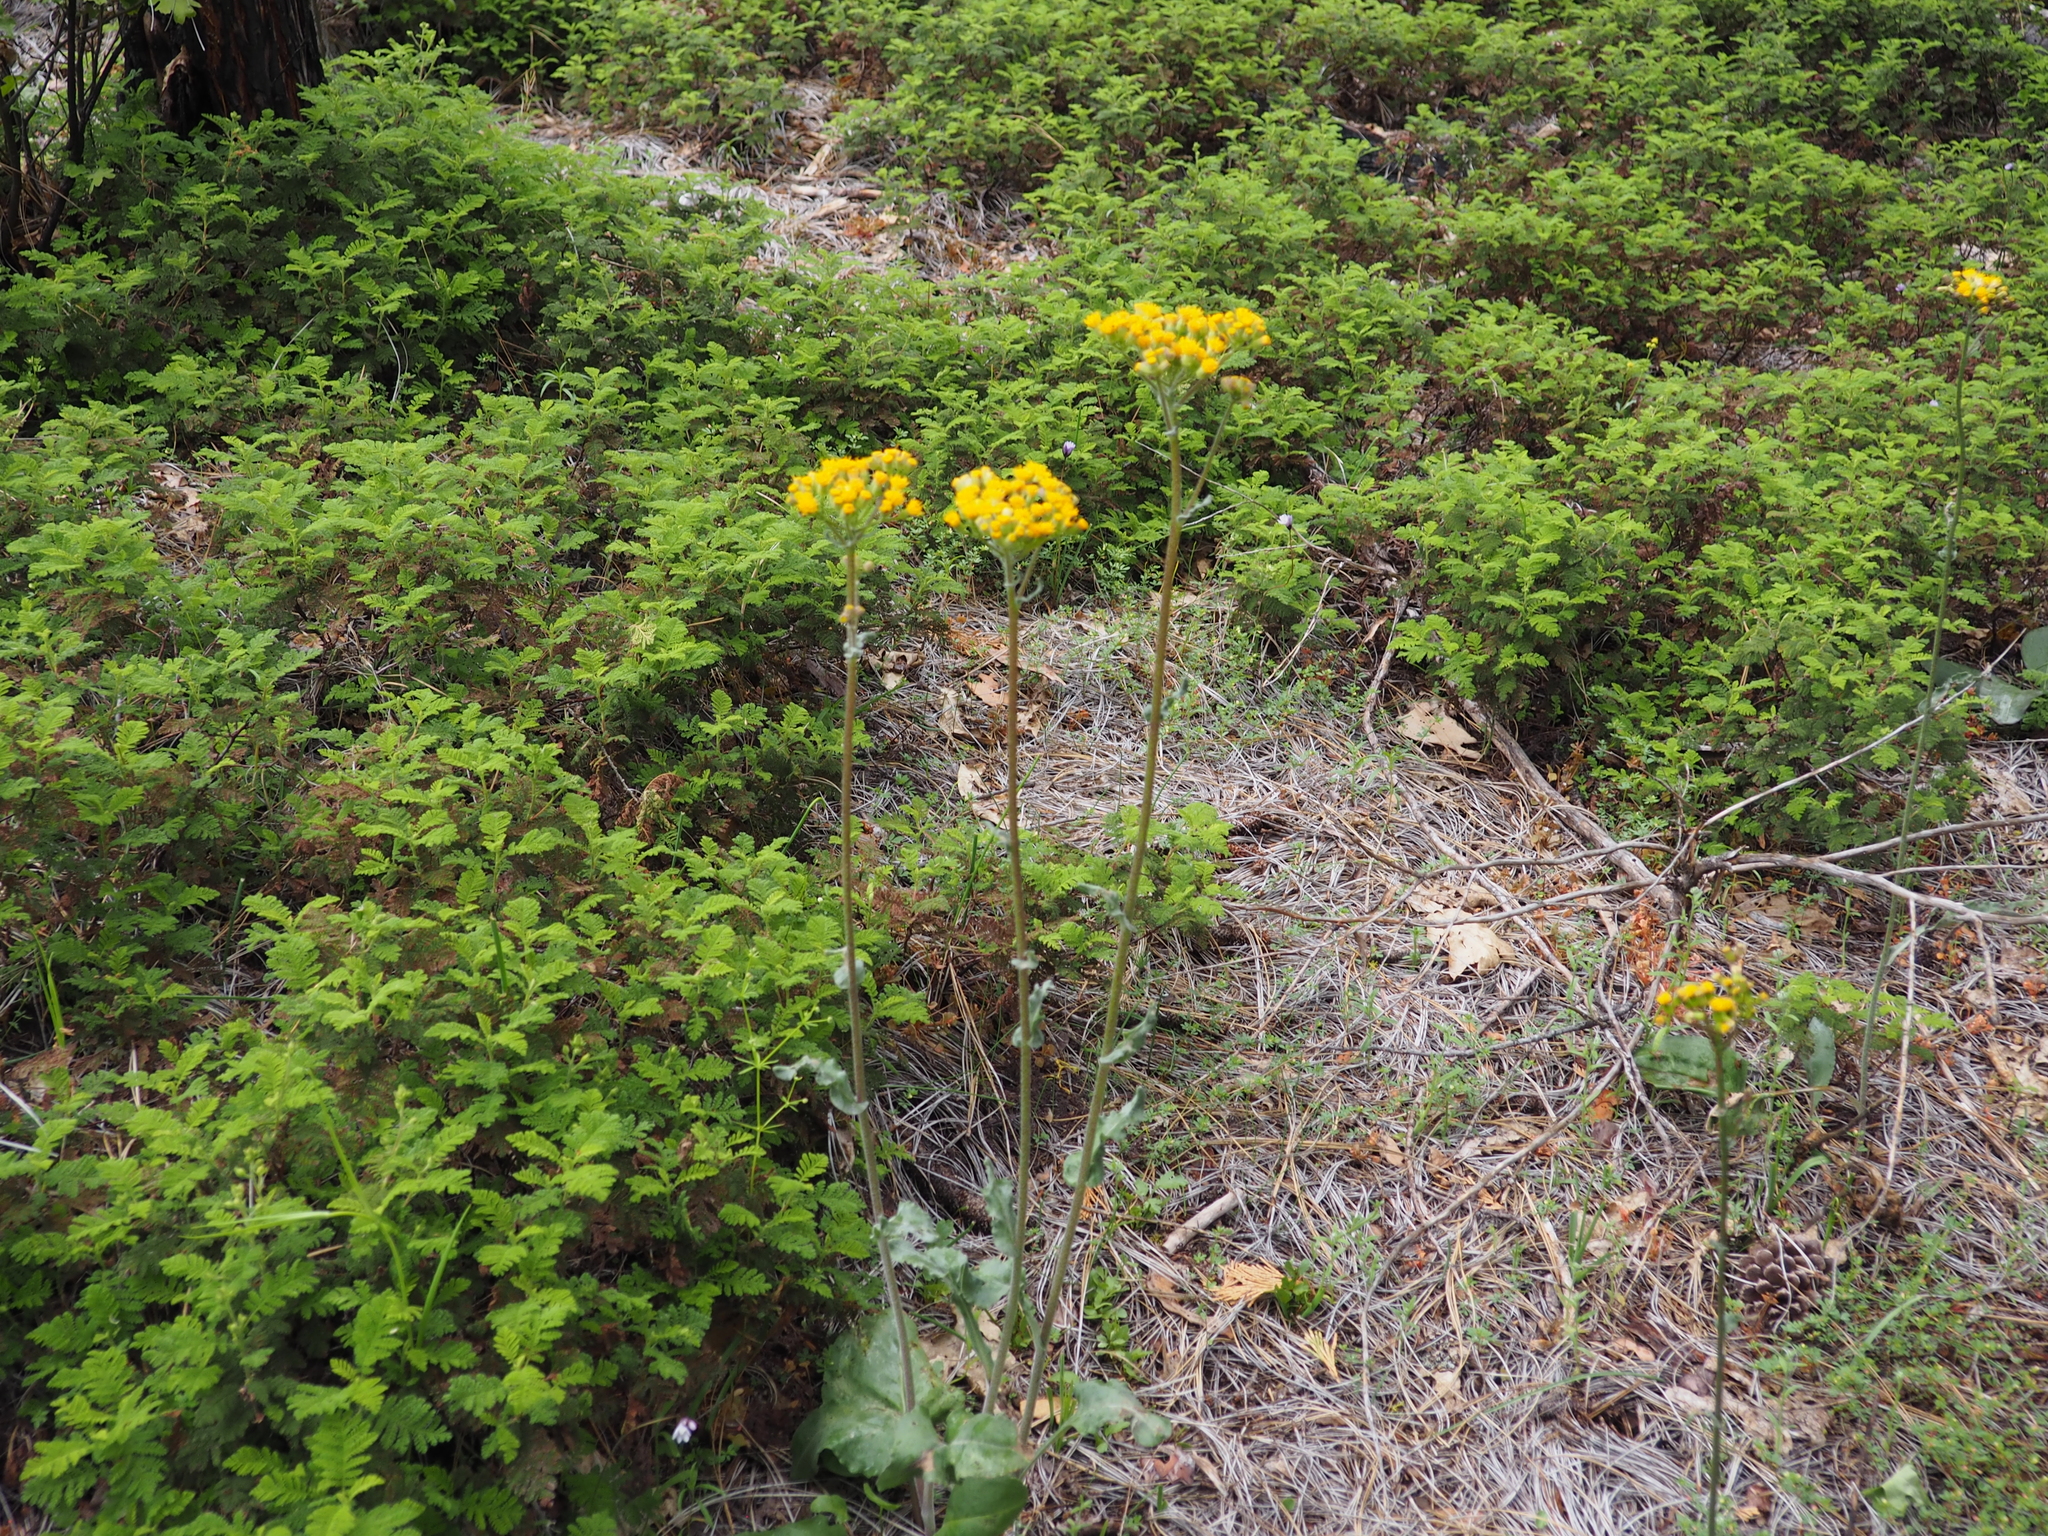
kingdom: Plantae
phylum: Tracheophyta
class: Magnoliopsida
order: Asterales
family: Asteraceae
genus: Senecio
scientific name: Senecio integerrimus
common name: Gaugeplant
